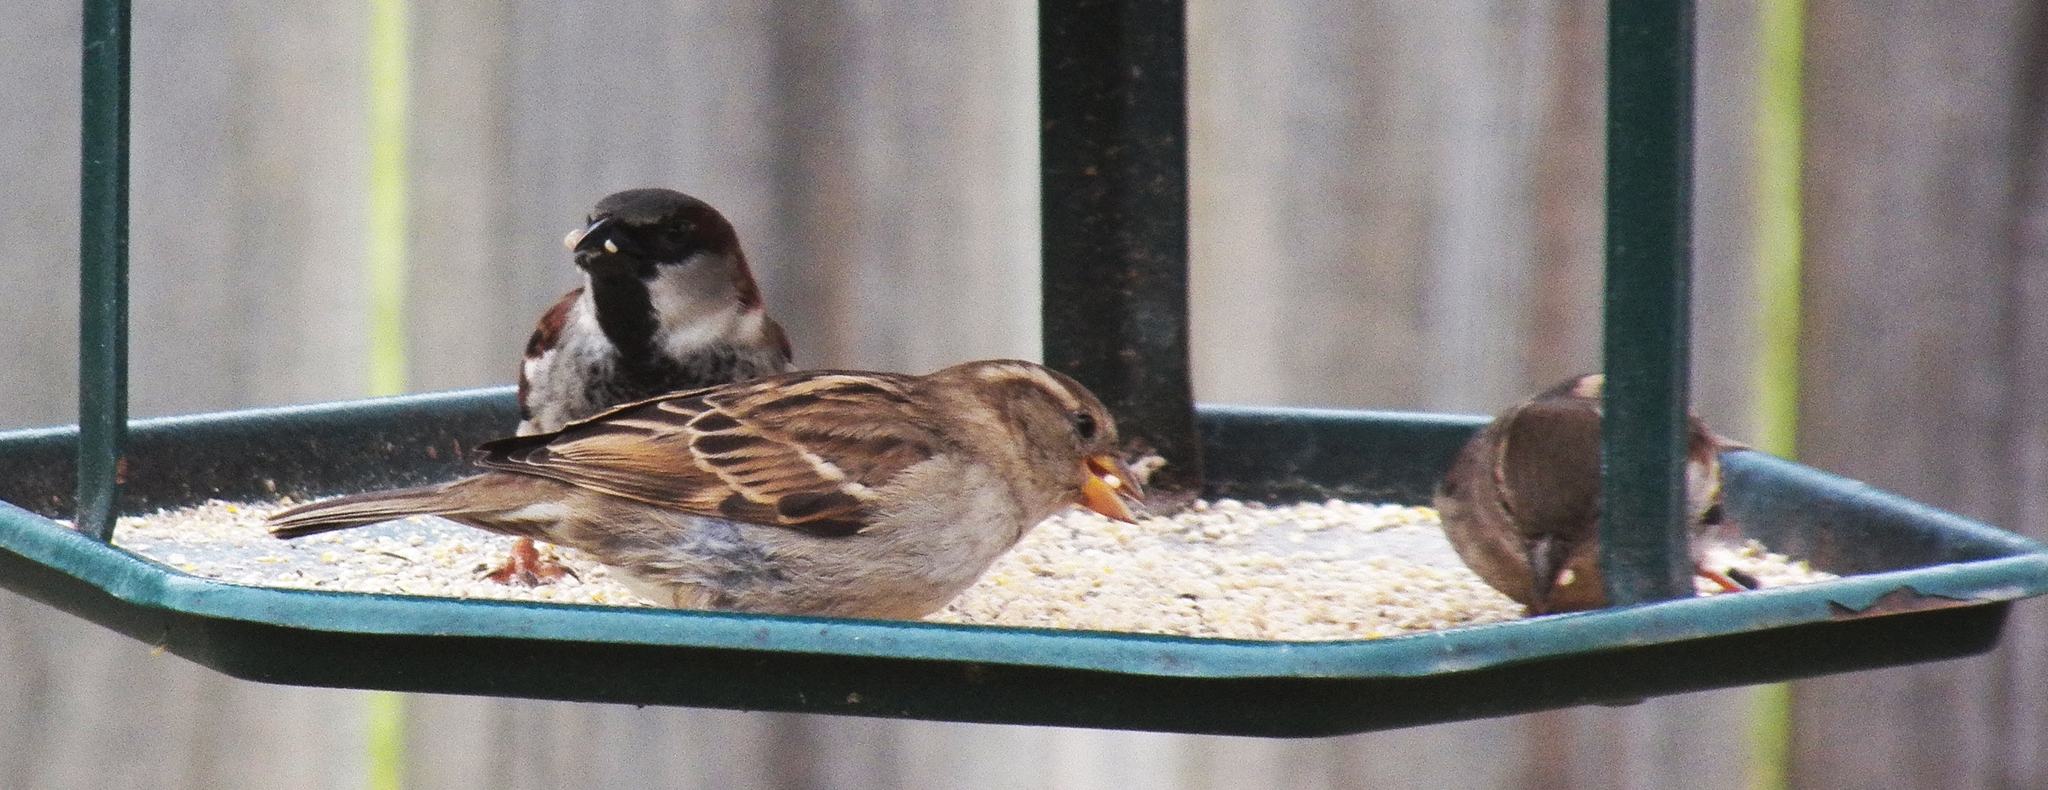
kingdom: Animalia
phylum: Chordata
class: Aves
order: Passeriformes
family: Passeridae
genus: Passer
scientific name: Passer domesticus
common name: House sparrow
